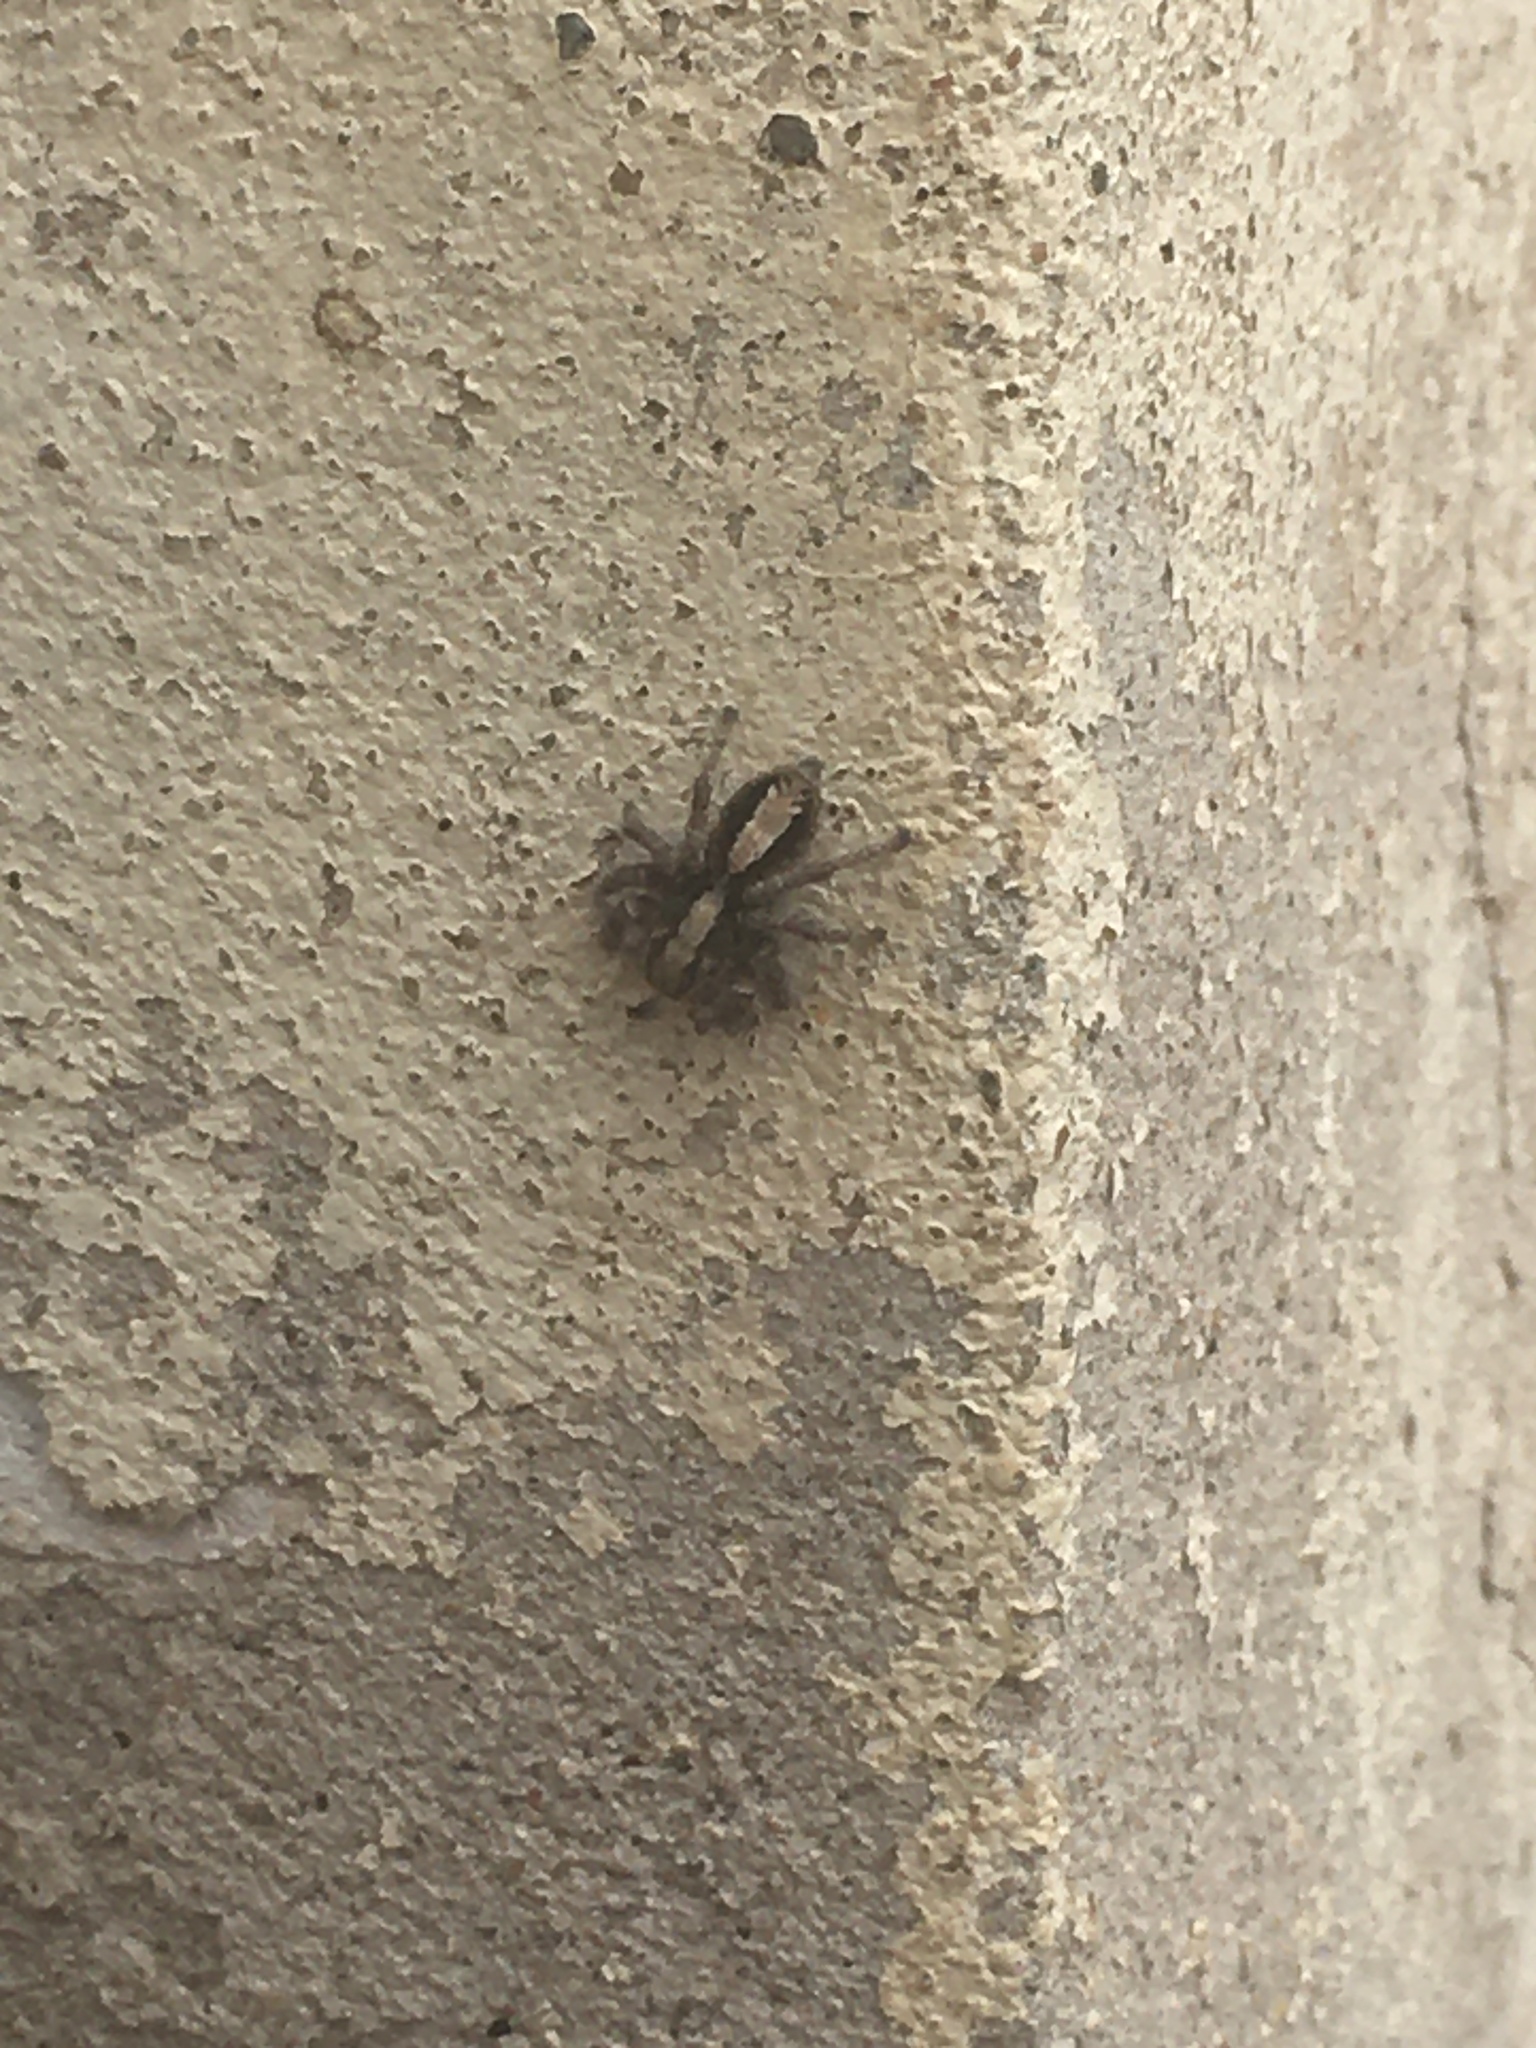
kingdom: Animalia
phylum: Arthropoda
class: Arachnida
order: Araneae
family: Salticidae
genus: Megafreya
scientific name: Megafreya sutrix
